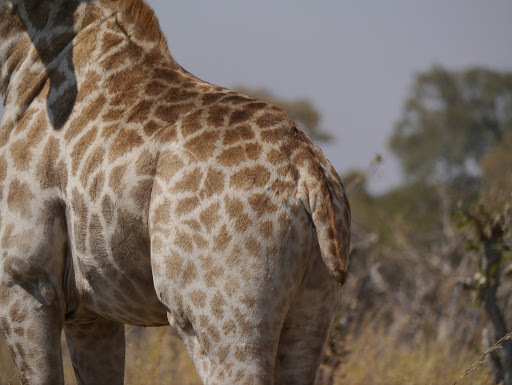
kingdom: Animalia
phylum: Chordata
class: Mammalia
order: Artiodactyla
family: Giraffidae
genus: Giraffa
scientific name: Giraffa giraffa
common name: Southern giraffe
